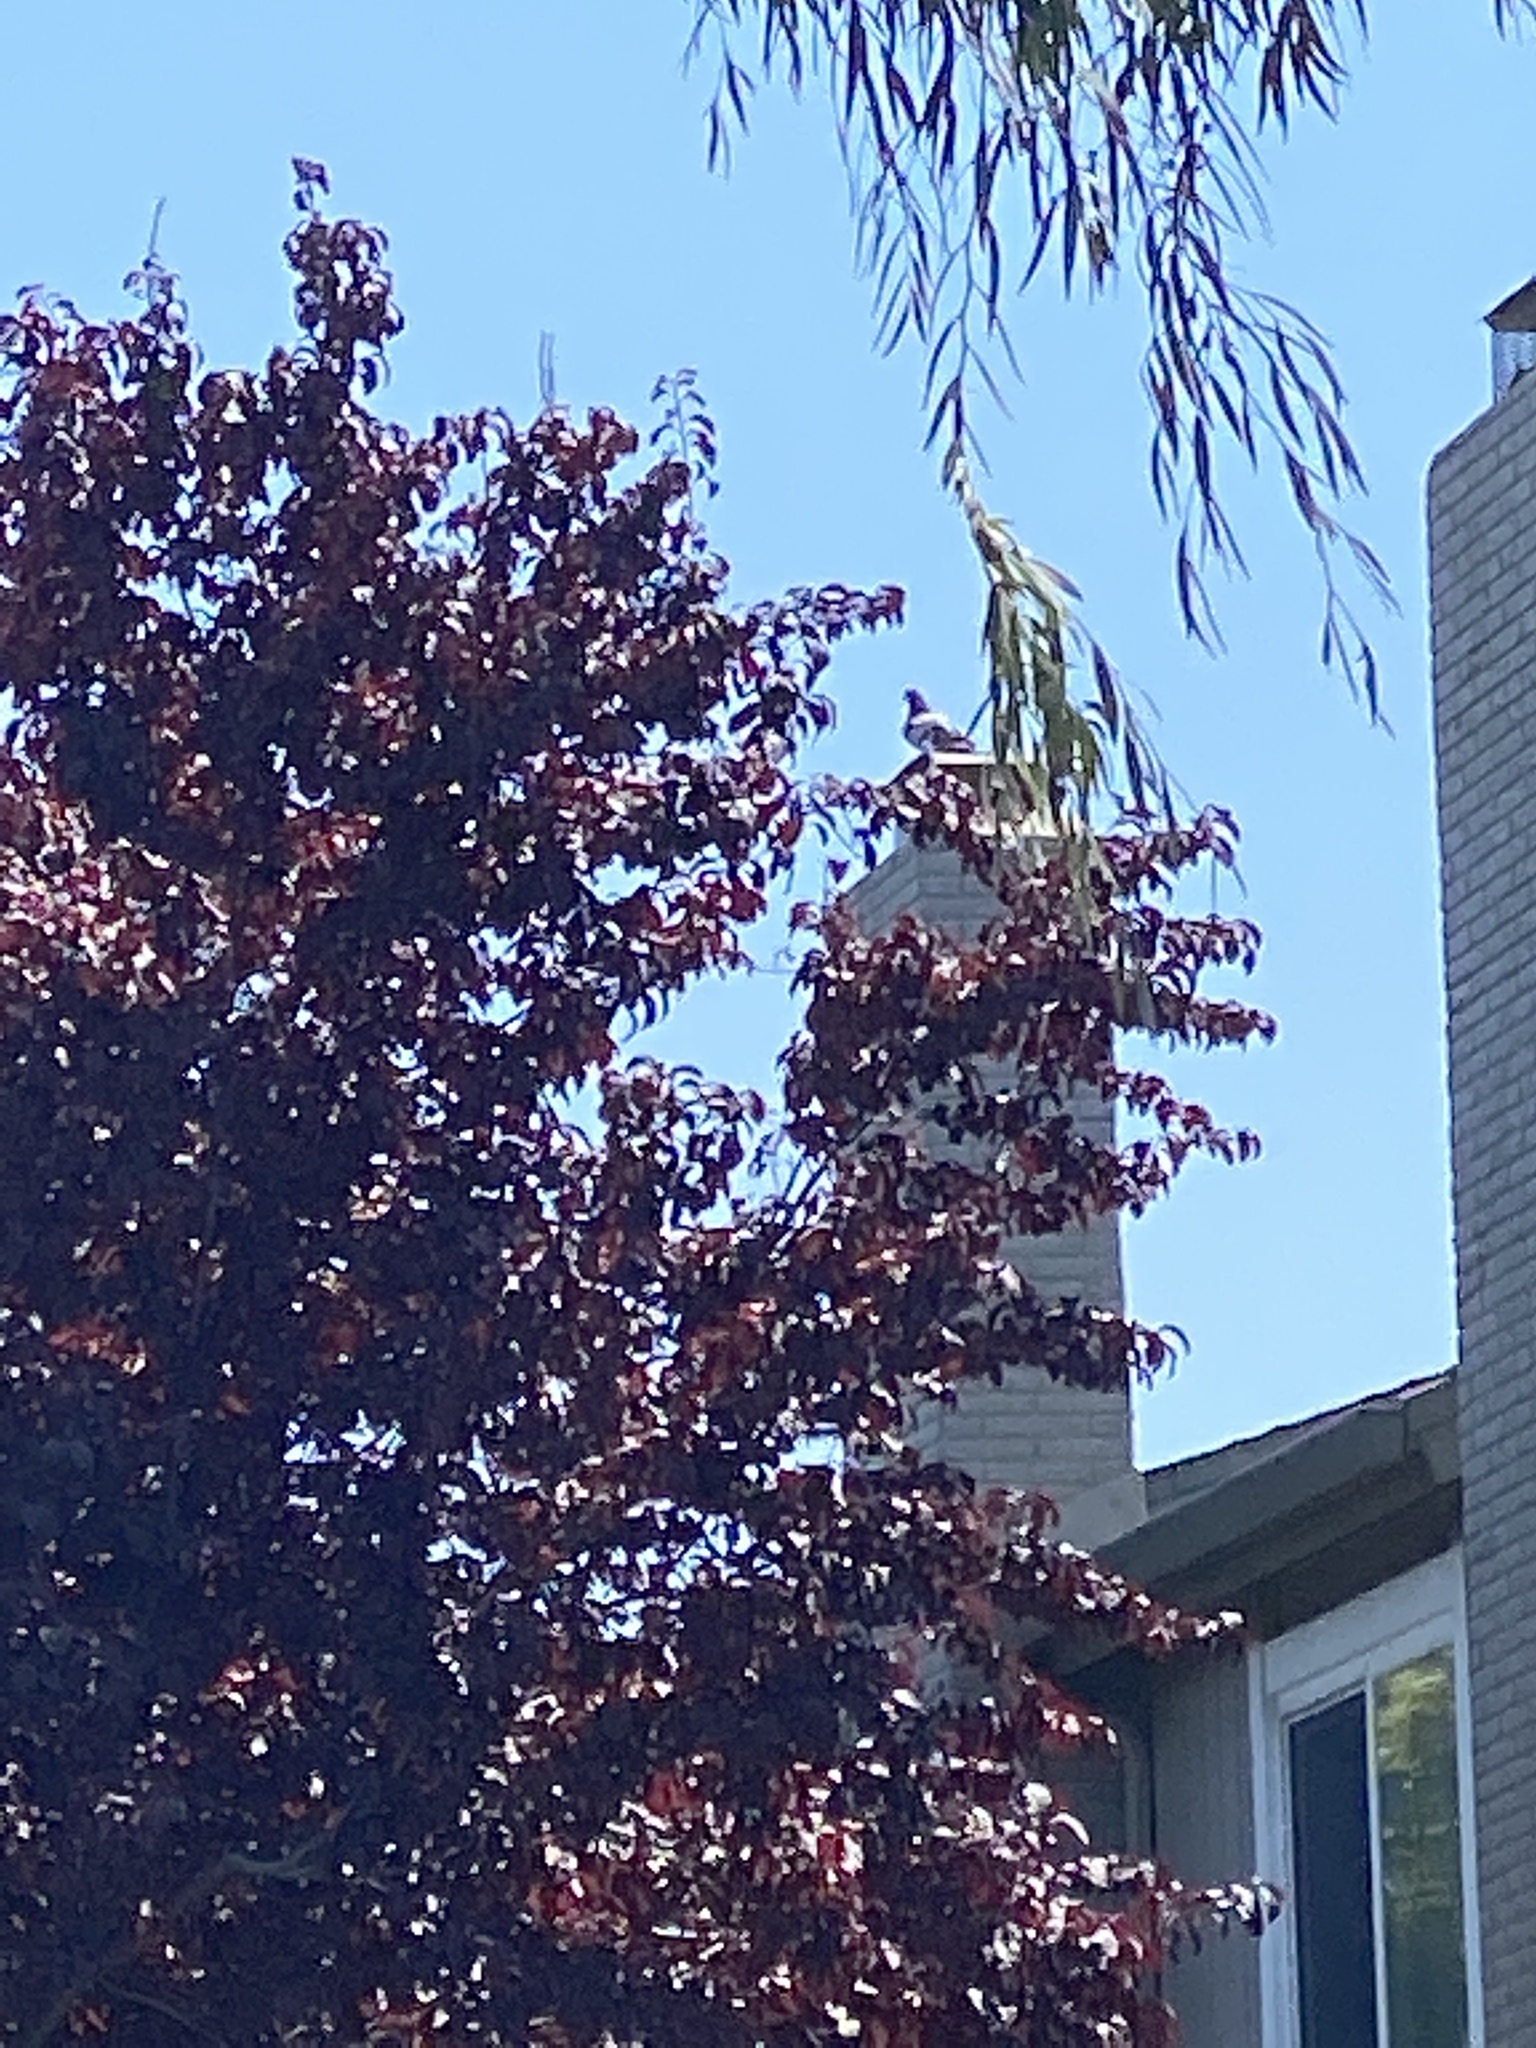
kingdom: Animalia
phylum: Chordata
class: Aves
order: Columbiformes
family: Columbidae
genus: Columba
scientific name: Columba livia
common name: Rock pigeon
